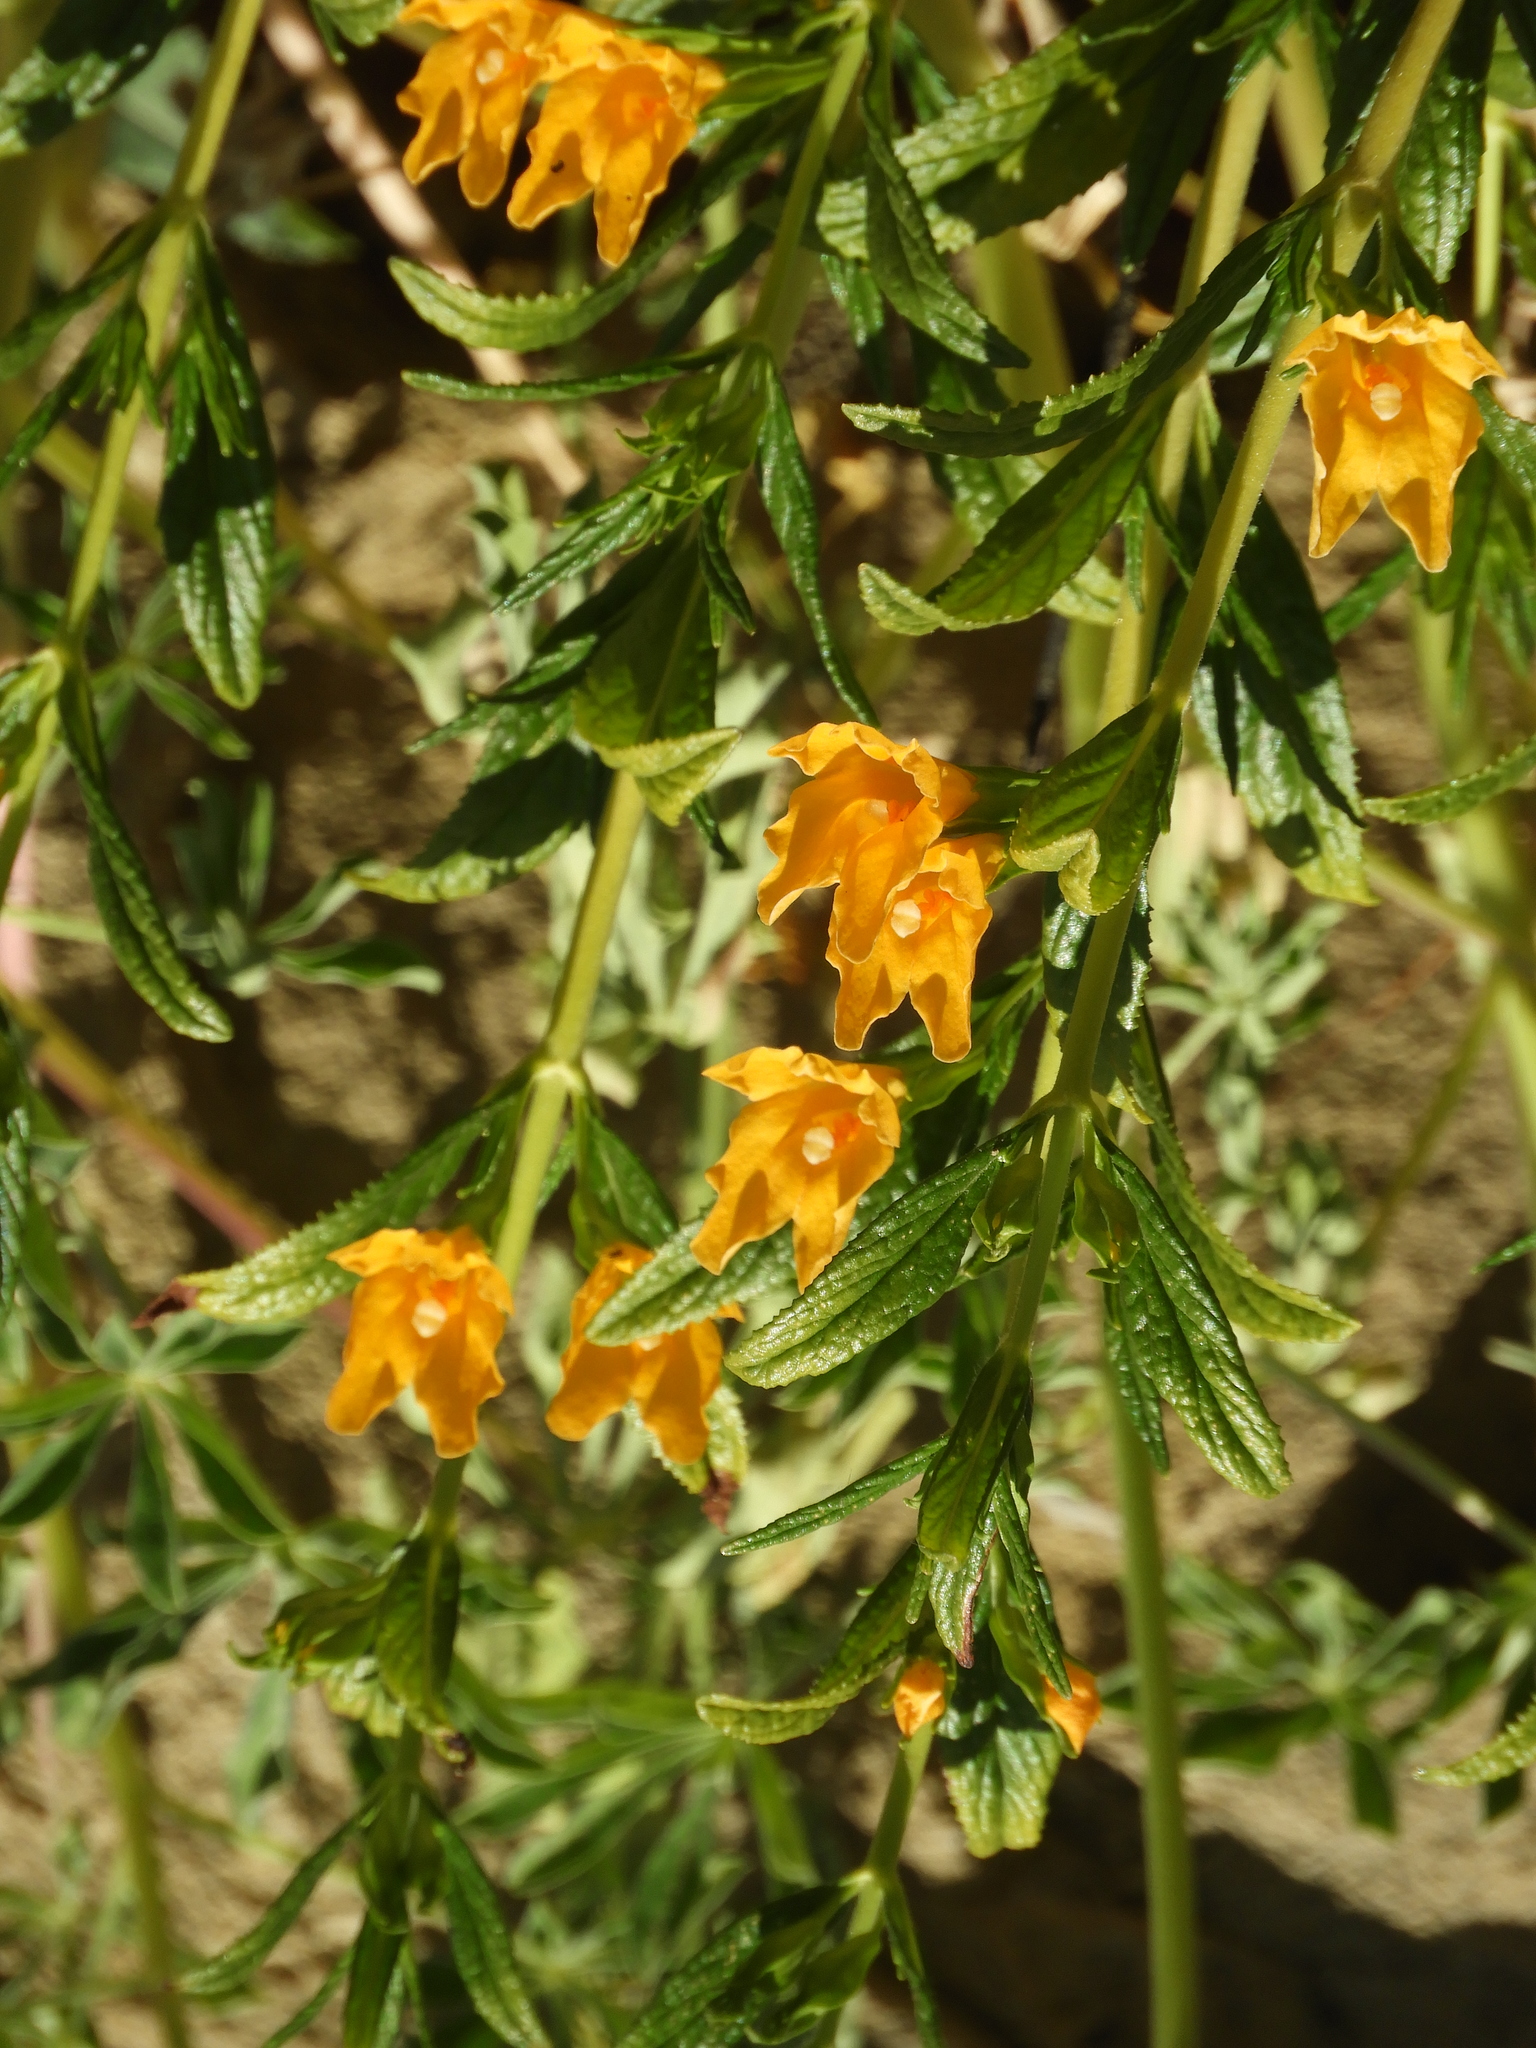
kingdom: Plantae
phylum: Tracheophyta
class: Magnoliopsida
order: Lamiales
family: Phrymaceae
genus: Diplacus
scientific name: Diplacus aurantiacus
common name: Bush monkey-flower
